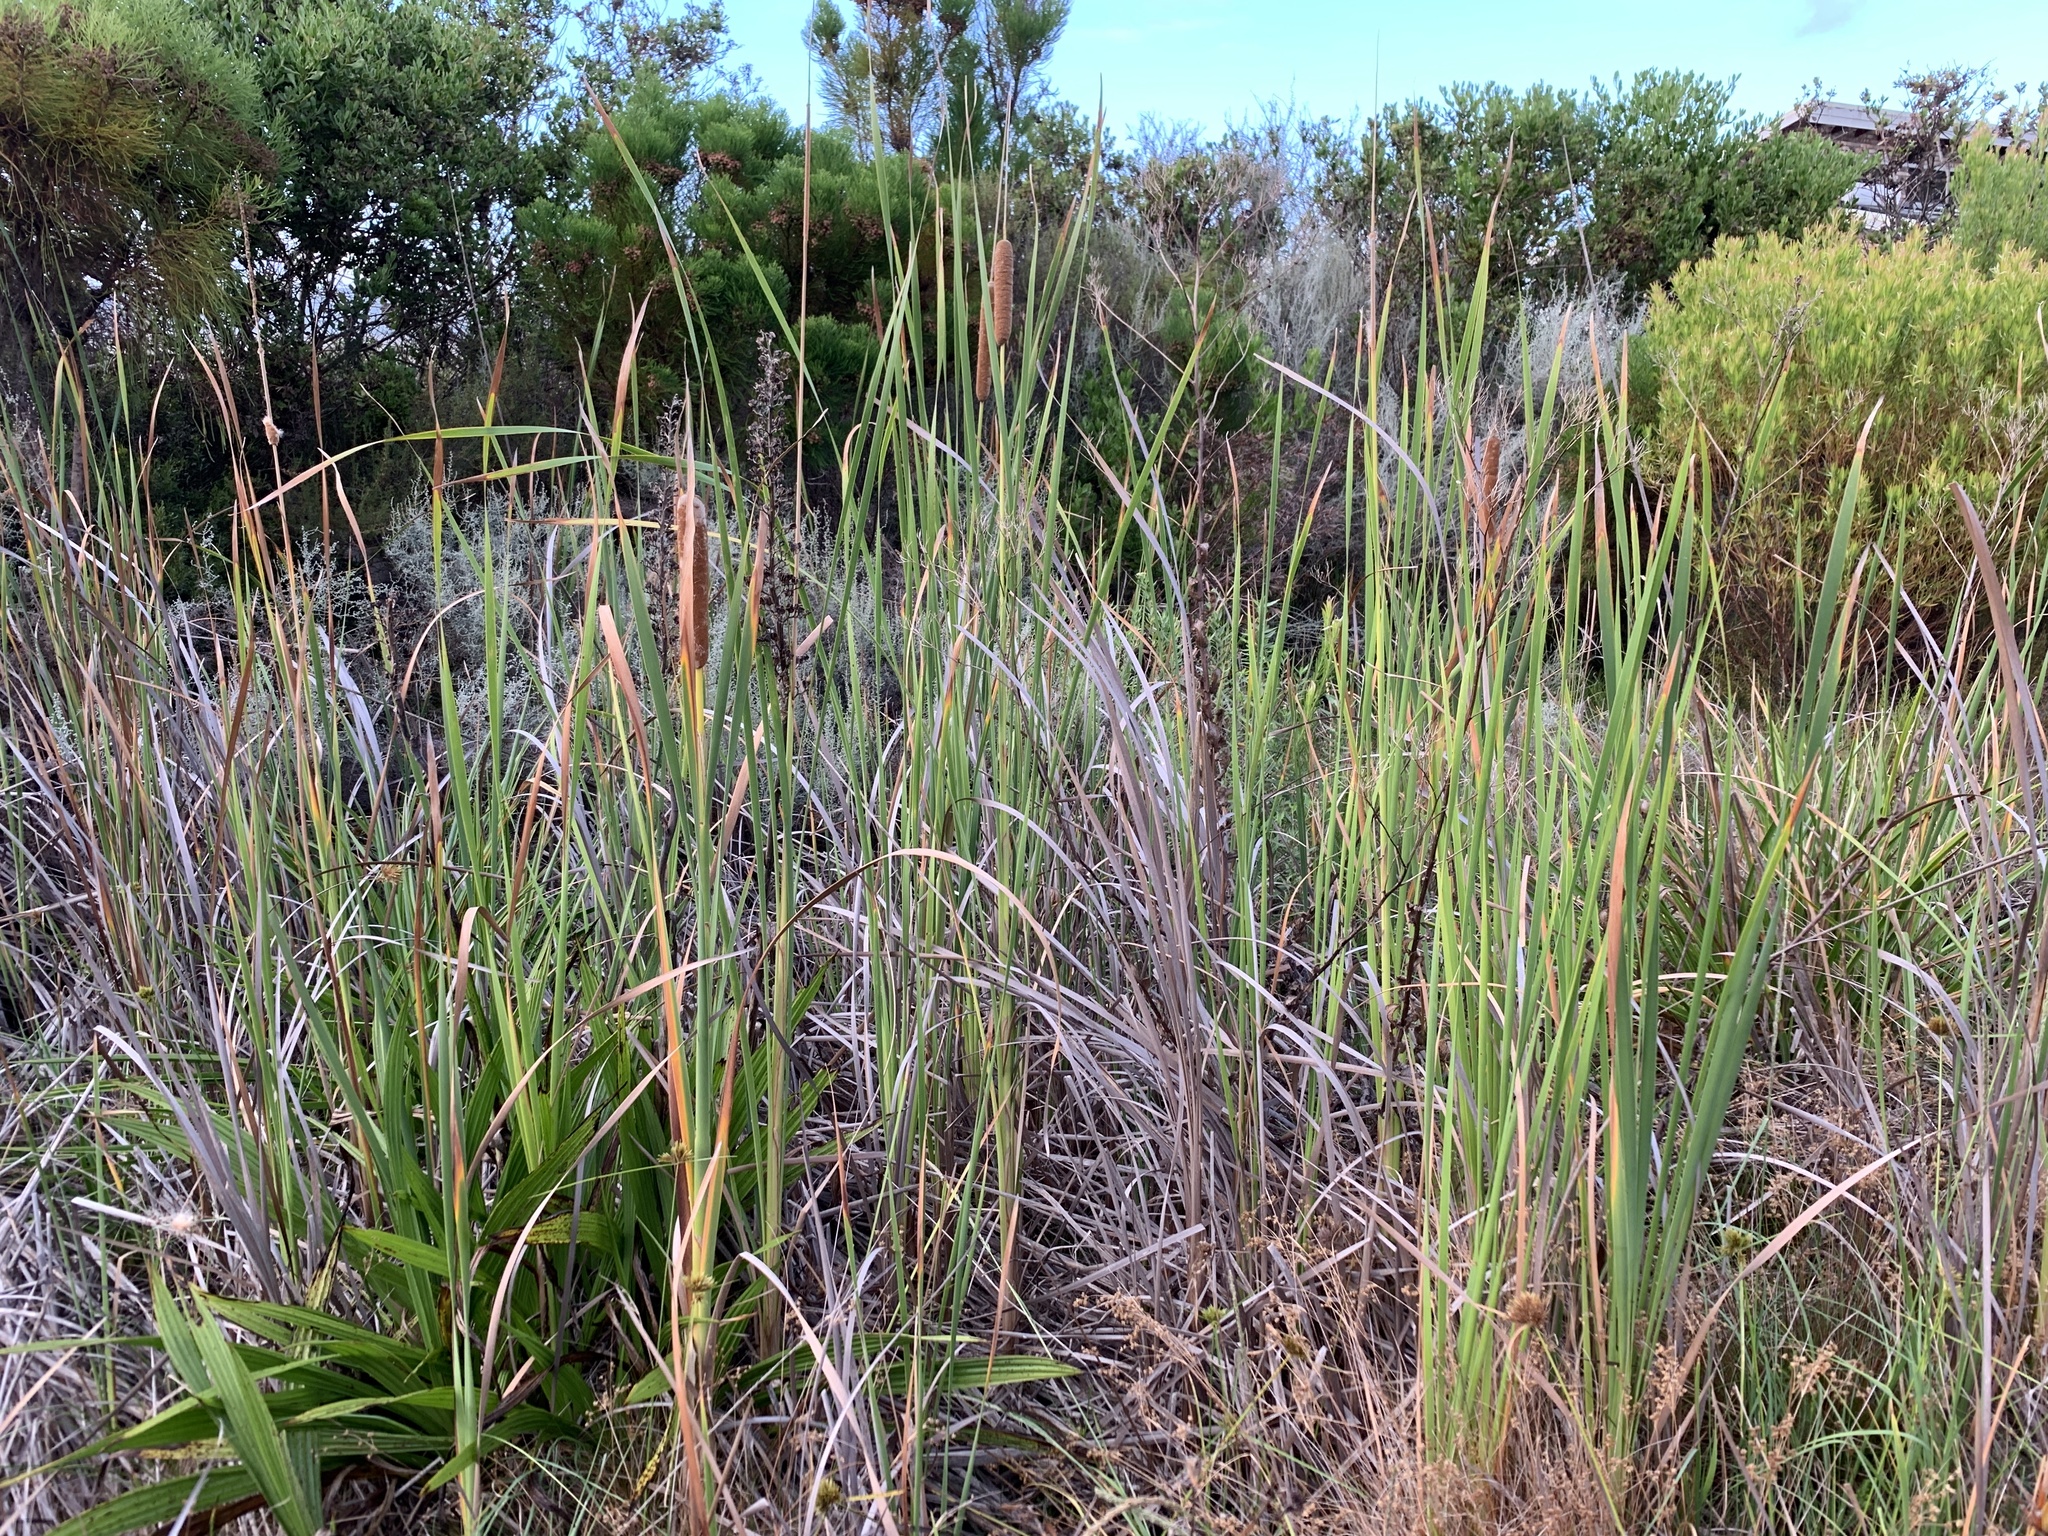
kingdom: Plantae
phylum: Tracheophyta
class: Liliopsida
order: Poales
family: Typhaceae
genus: Typha
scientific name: Typha capensis
